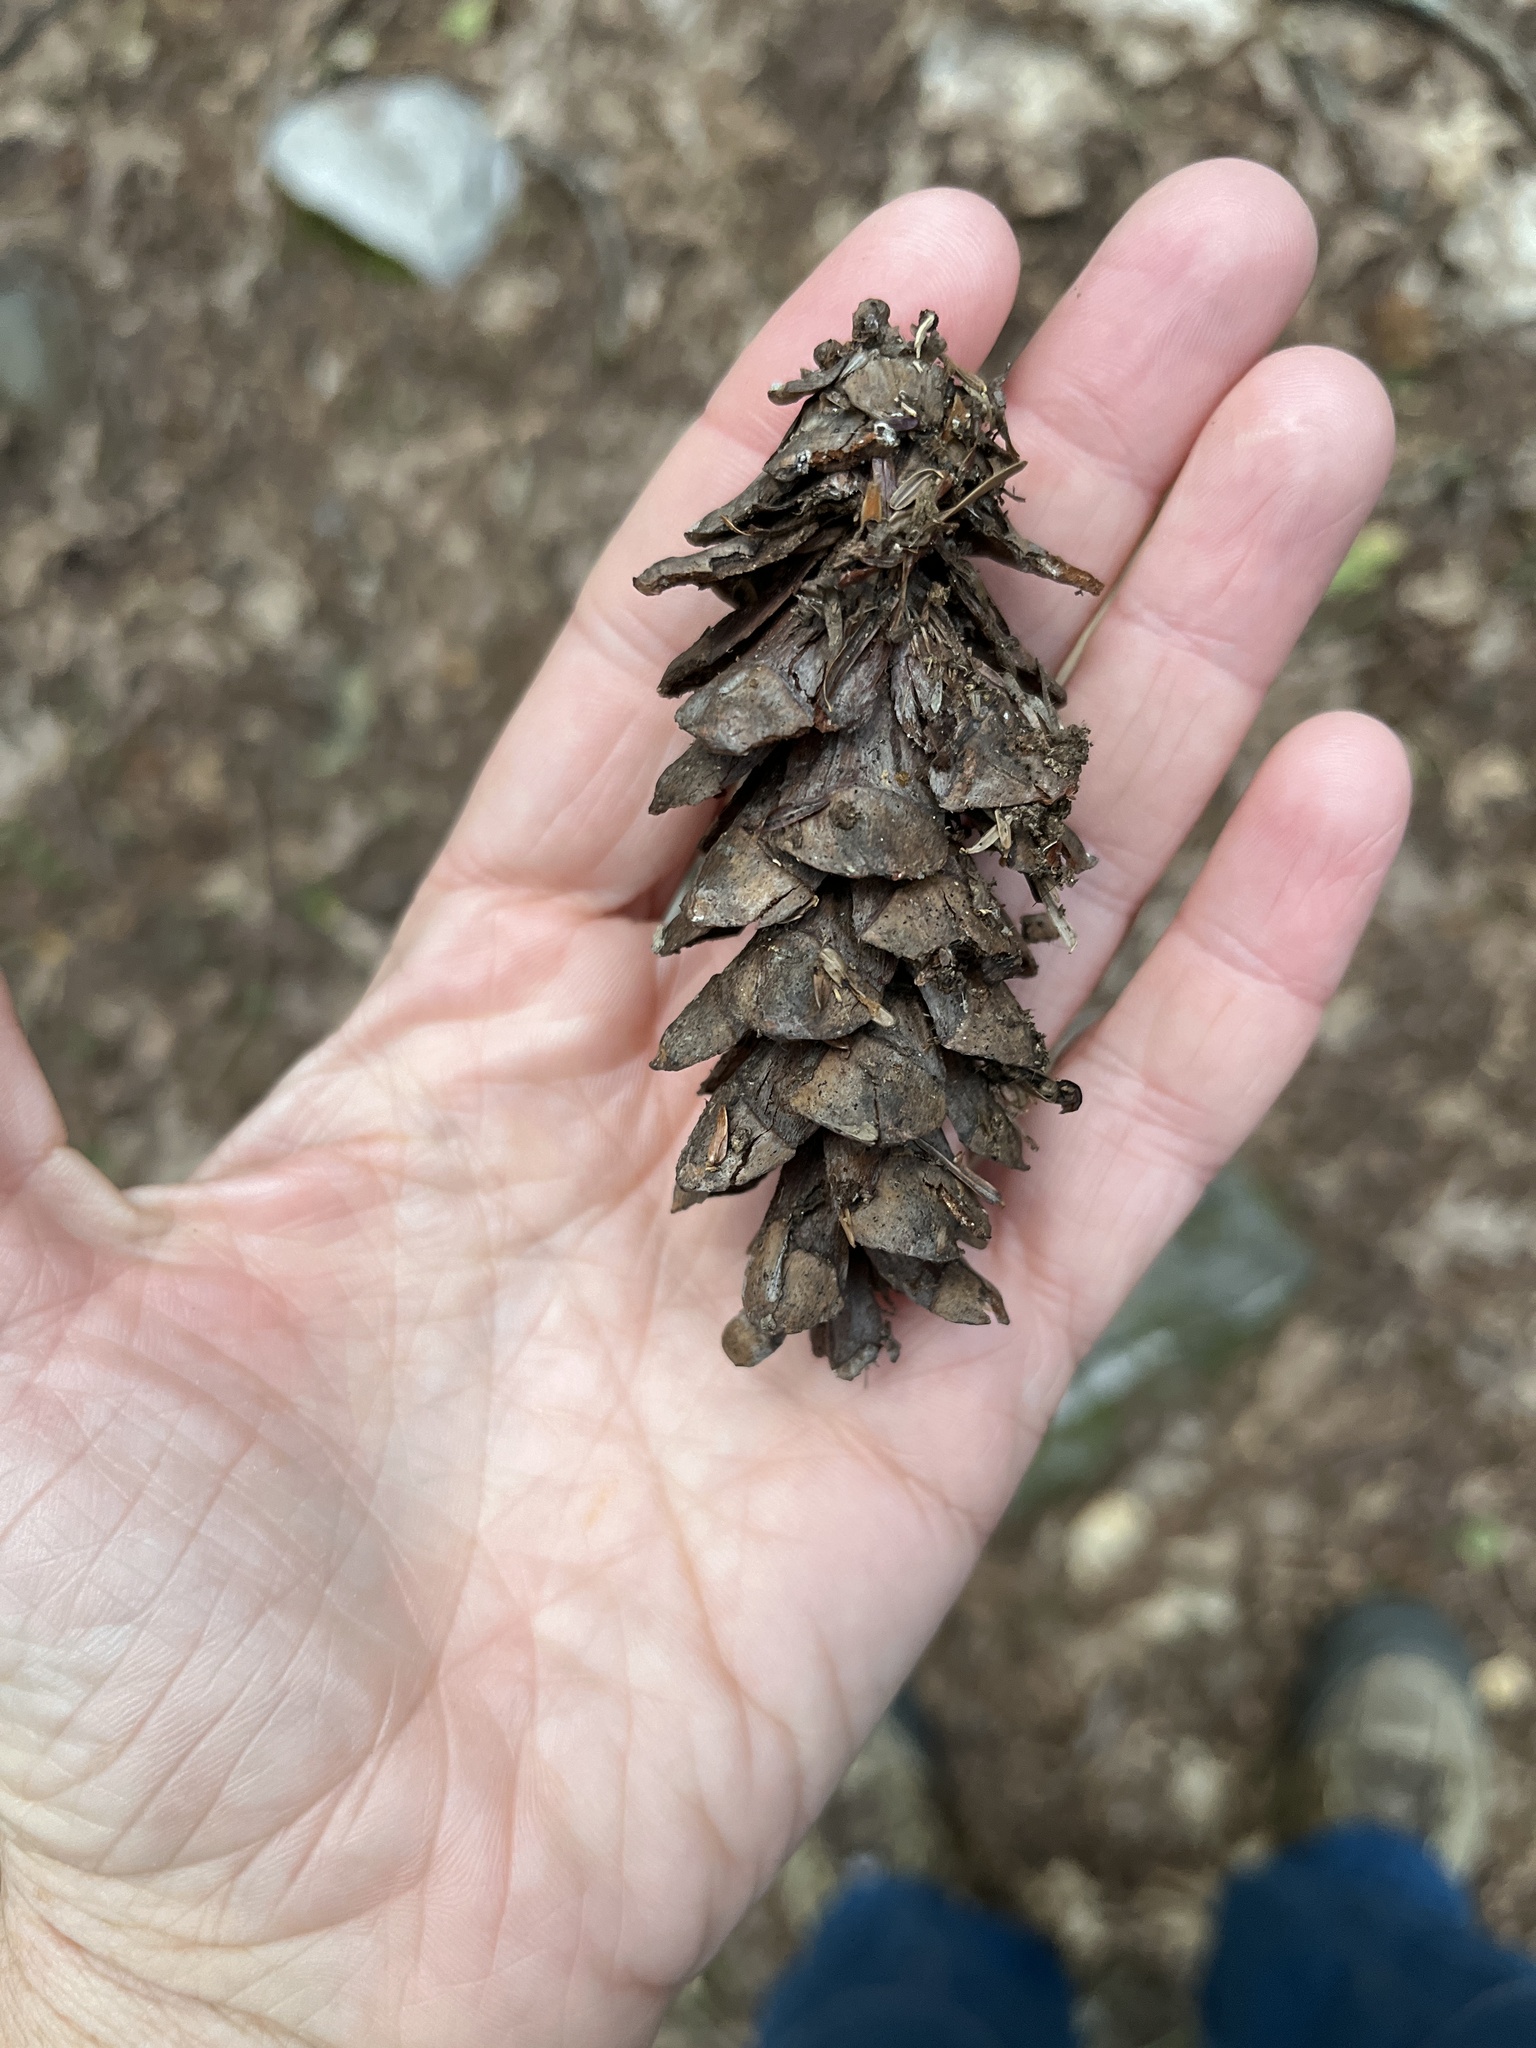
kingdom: Plantae
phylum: Tracheophyta
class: Pinopsida
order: Pinales
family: Pinaceae
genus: Pinus
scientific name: Pinus strobus
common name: Weymouth pine
